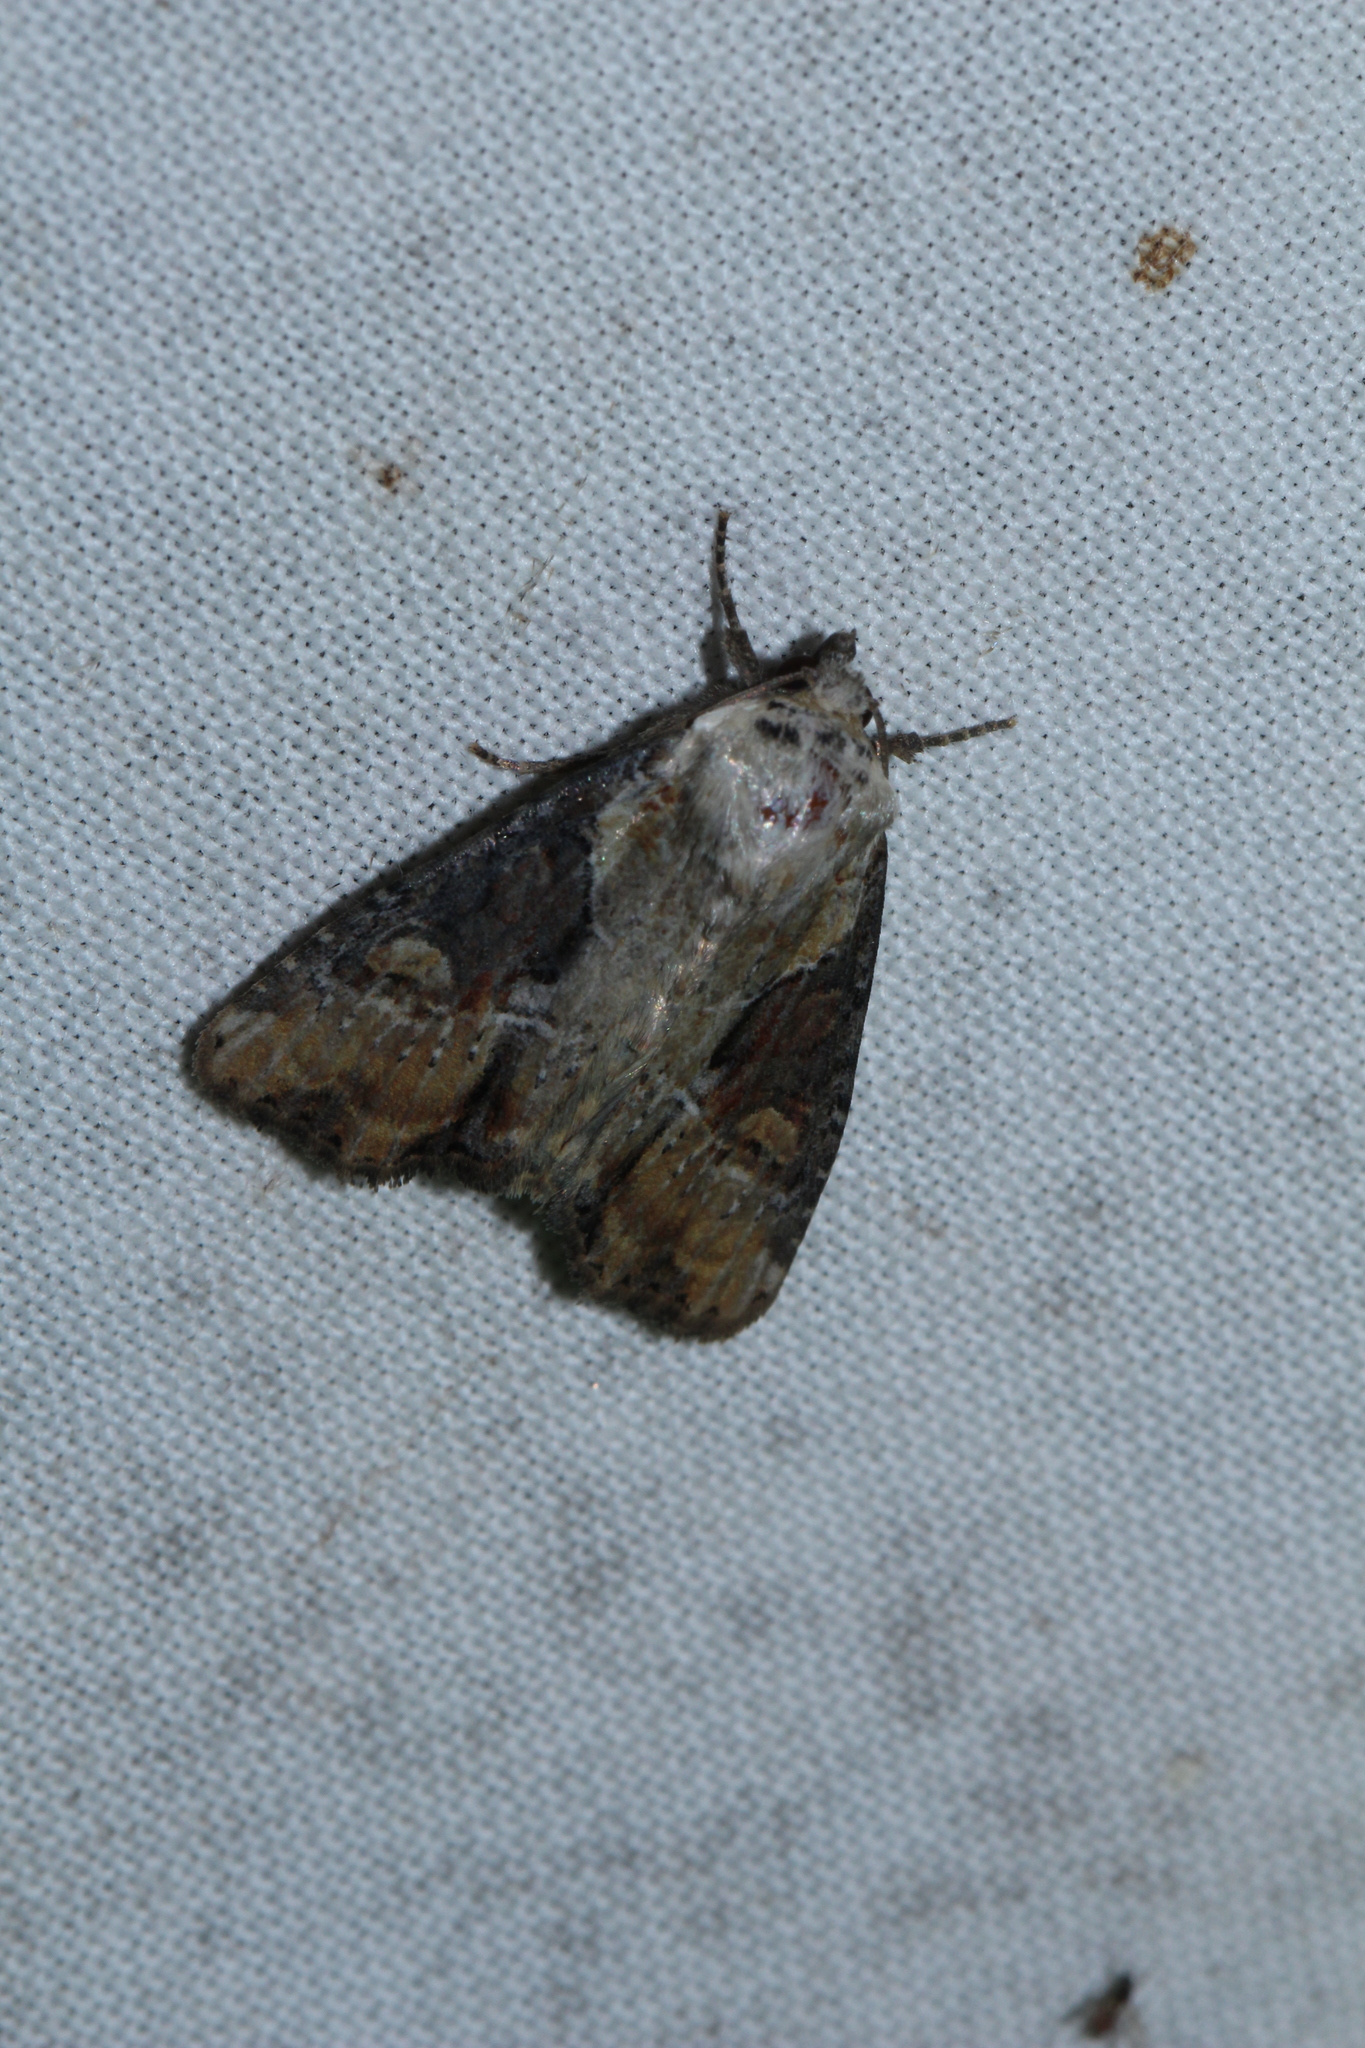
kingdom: Animalia
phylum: Arthropoda
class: Insecta
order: Lepidoptera
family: Noctuidae
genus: Lateroligia
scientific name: Lateroligia ophiogramma
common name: Double lobed
